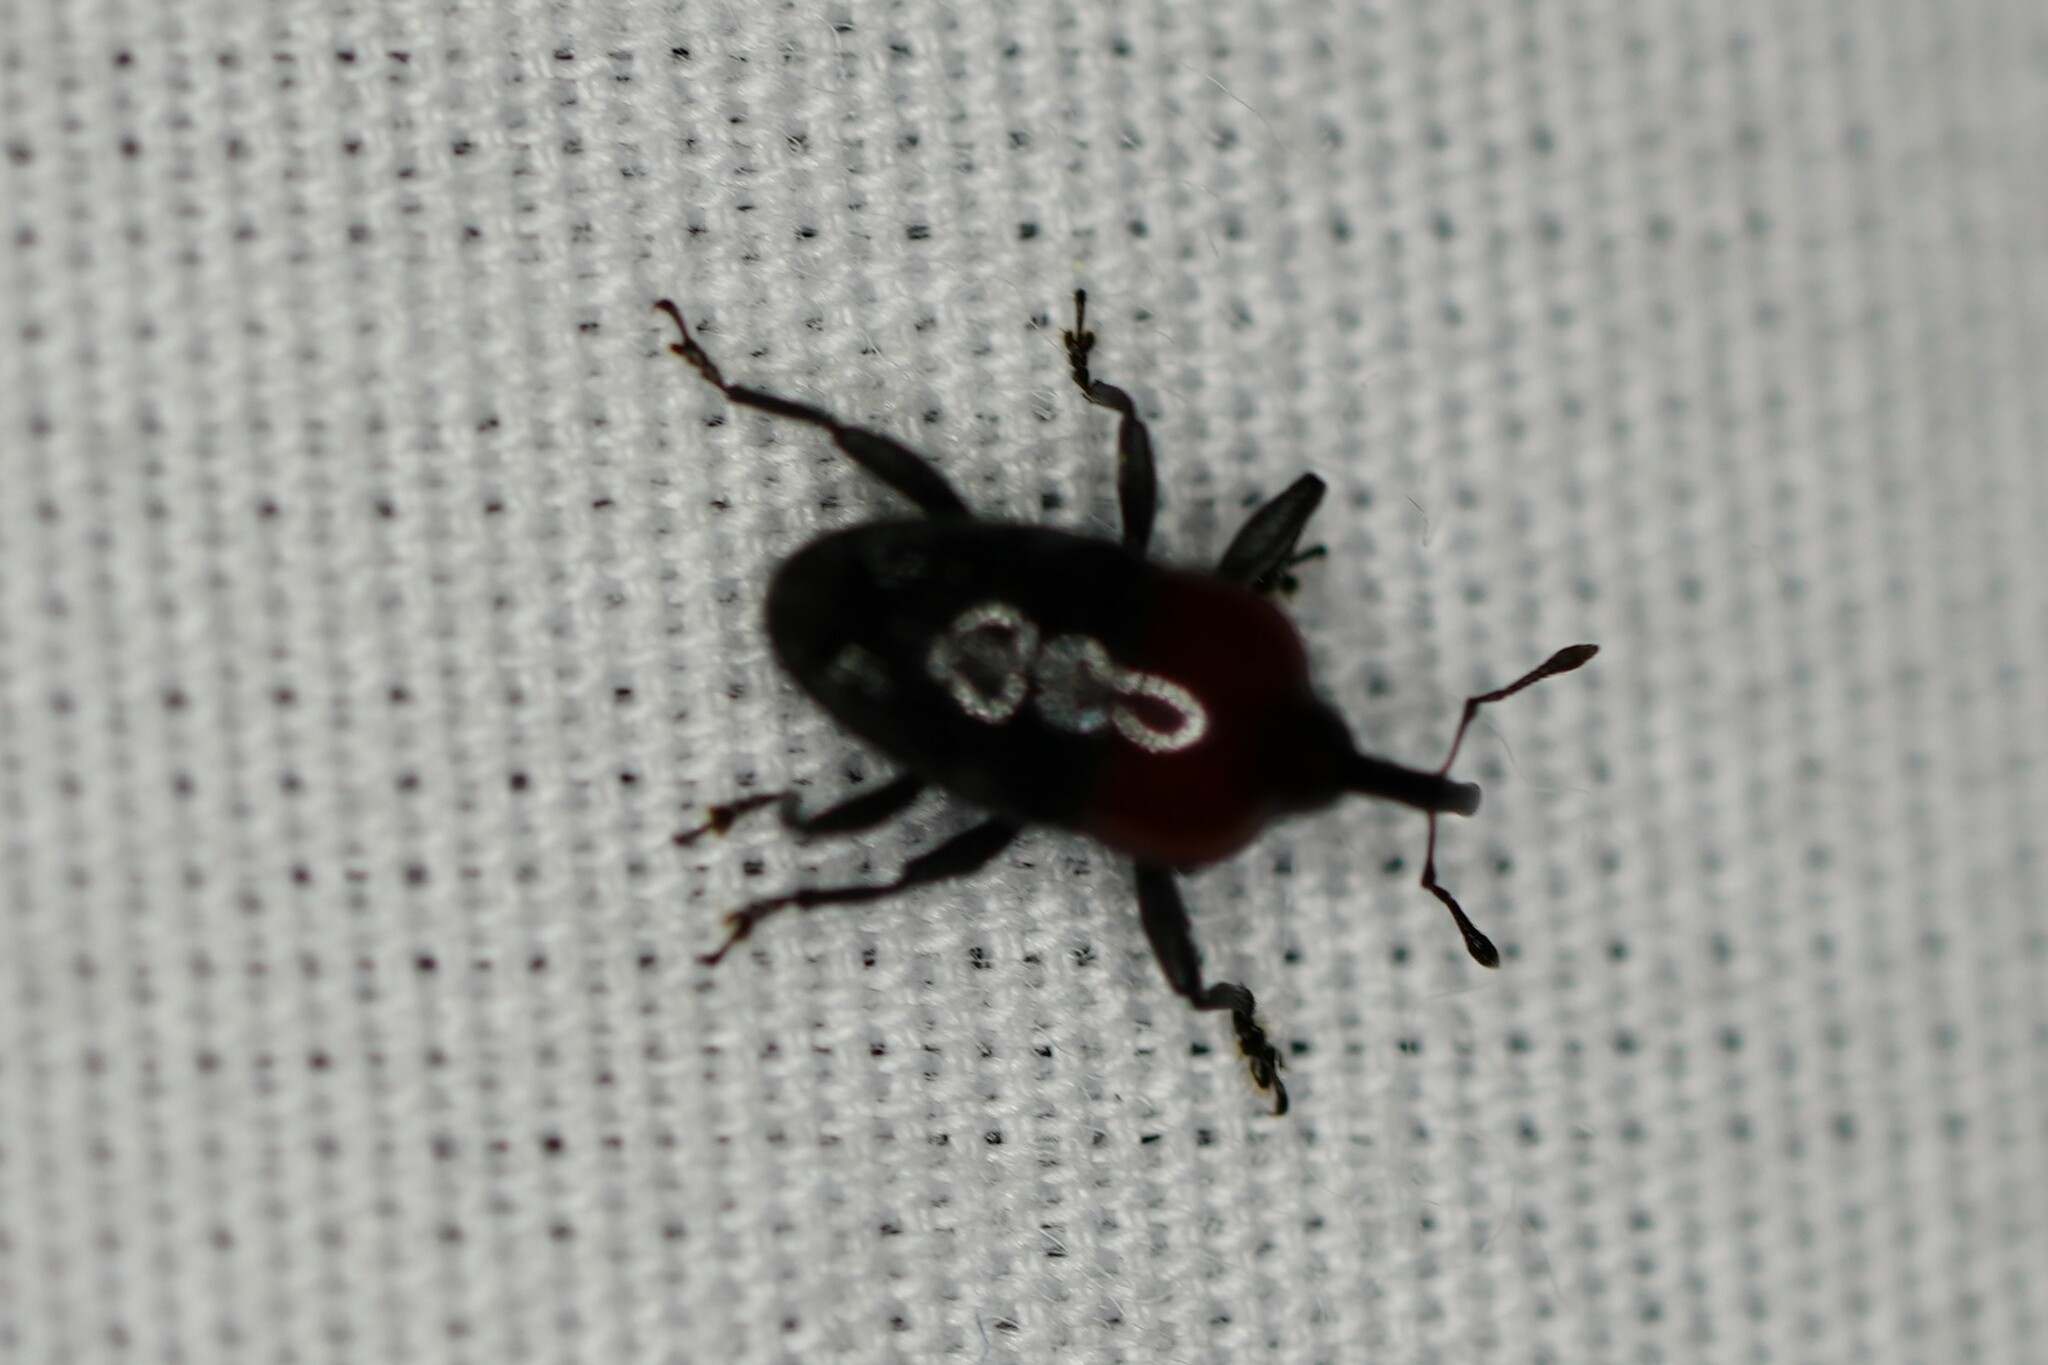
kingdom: Animalia
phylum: Arthropoda
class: Insecta
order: Coleoptera
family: Curculionidae
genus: Madarellus
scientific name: Madarellus undulatus
